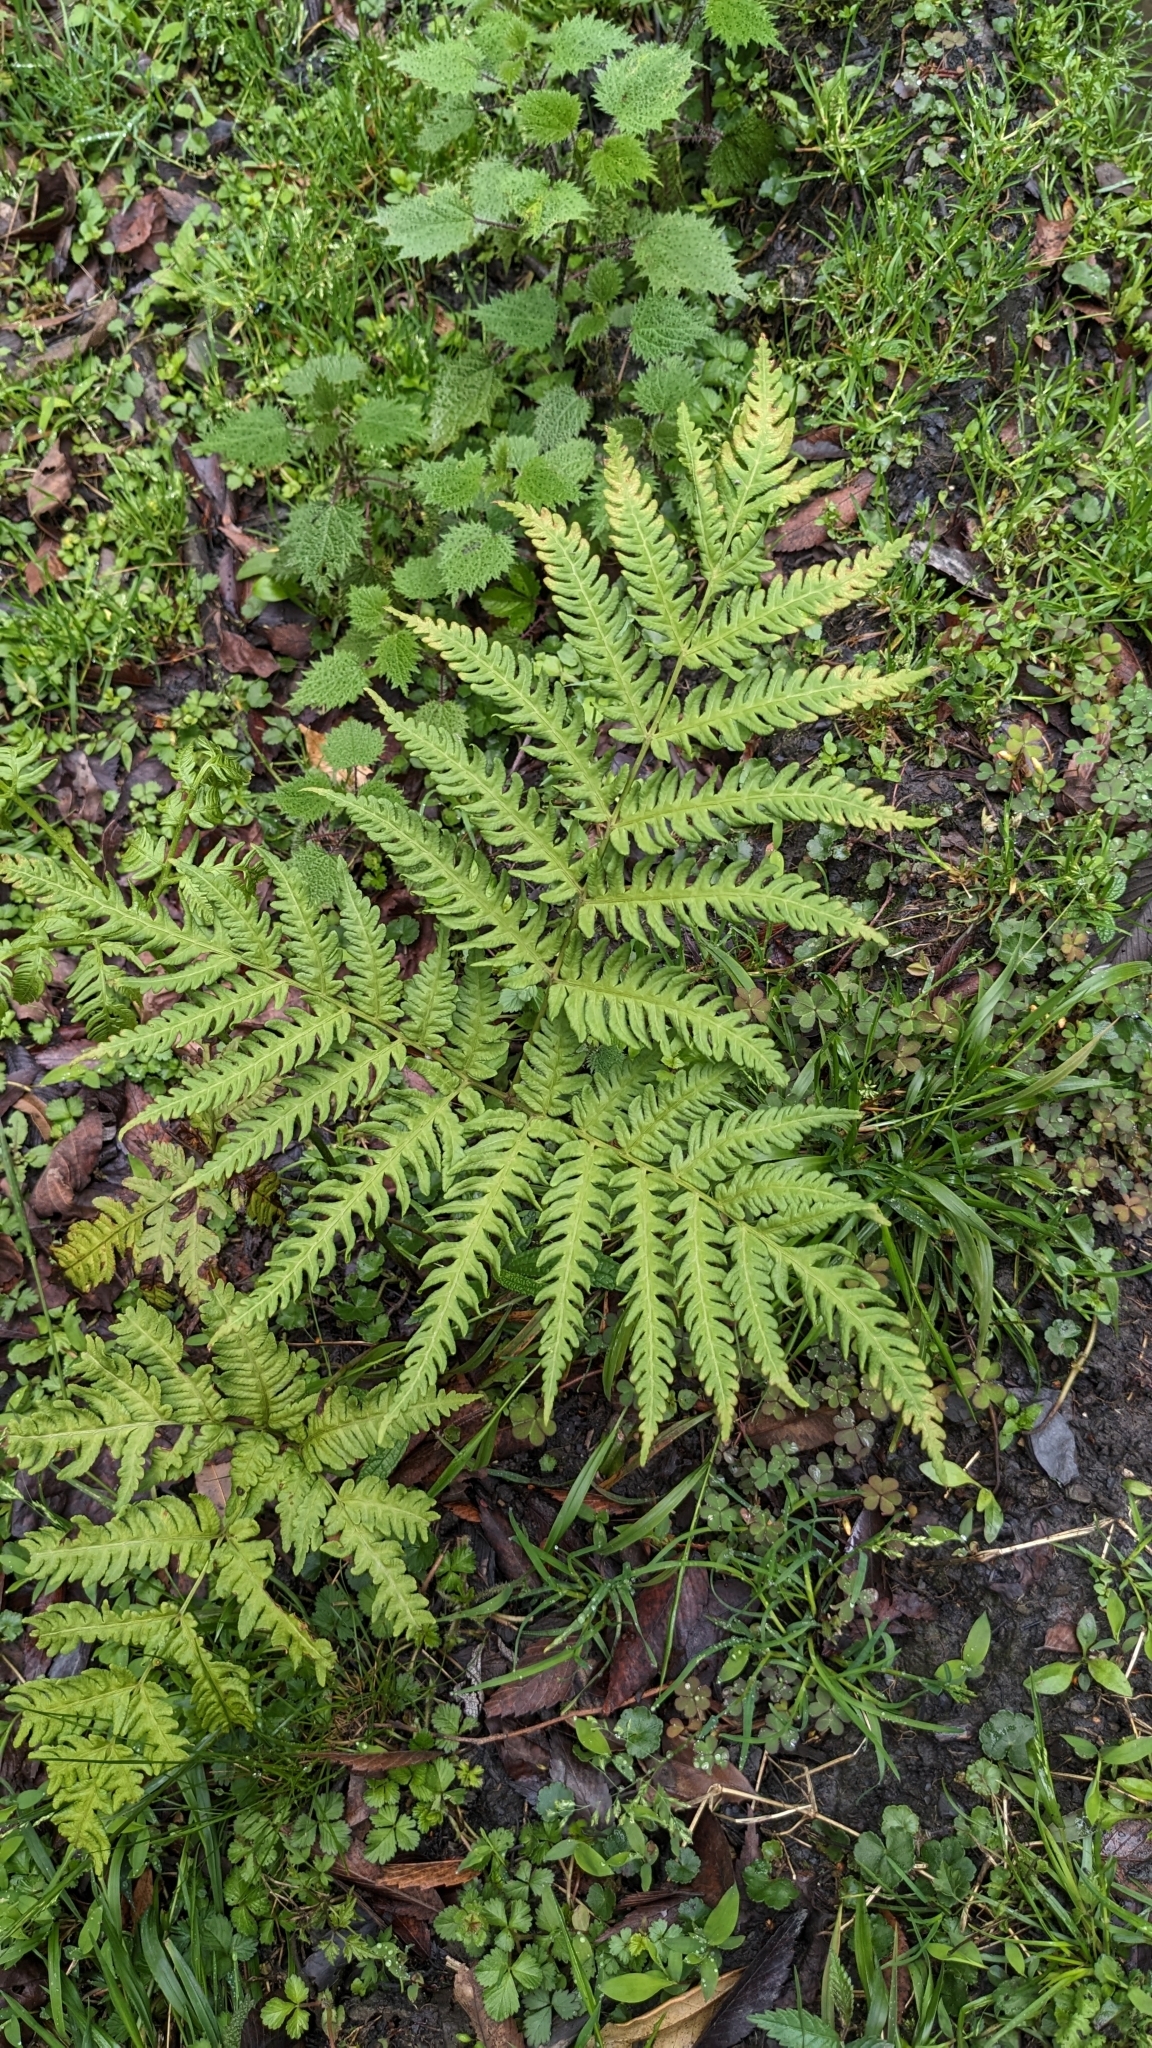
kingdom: Plantae
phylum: Tracheophyta
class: Polypodiopsida
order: Polypodiales
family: Pteridaceae
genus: Pteris
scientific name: Pteris wallichiana
